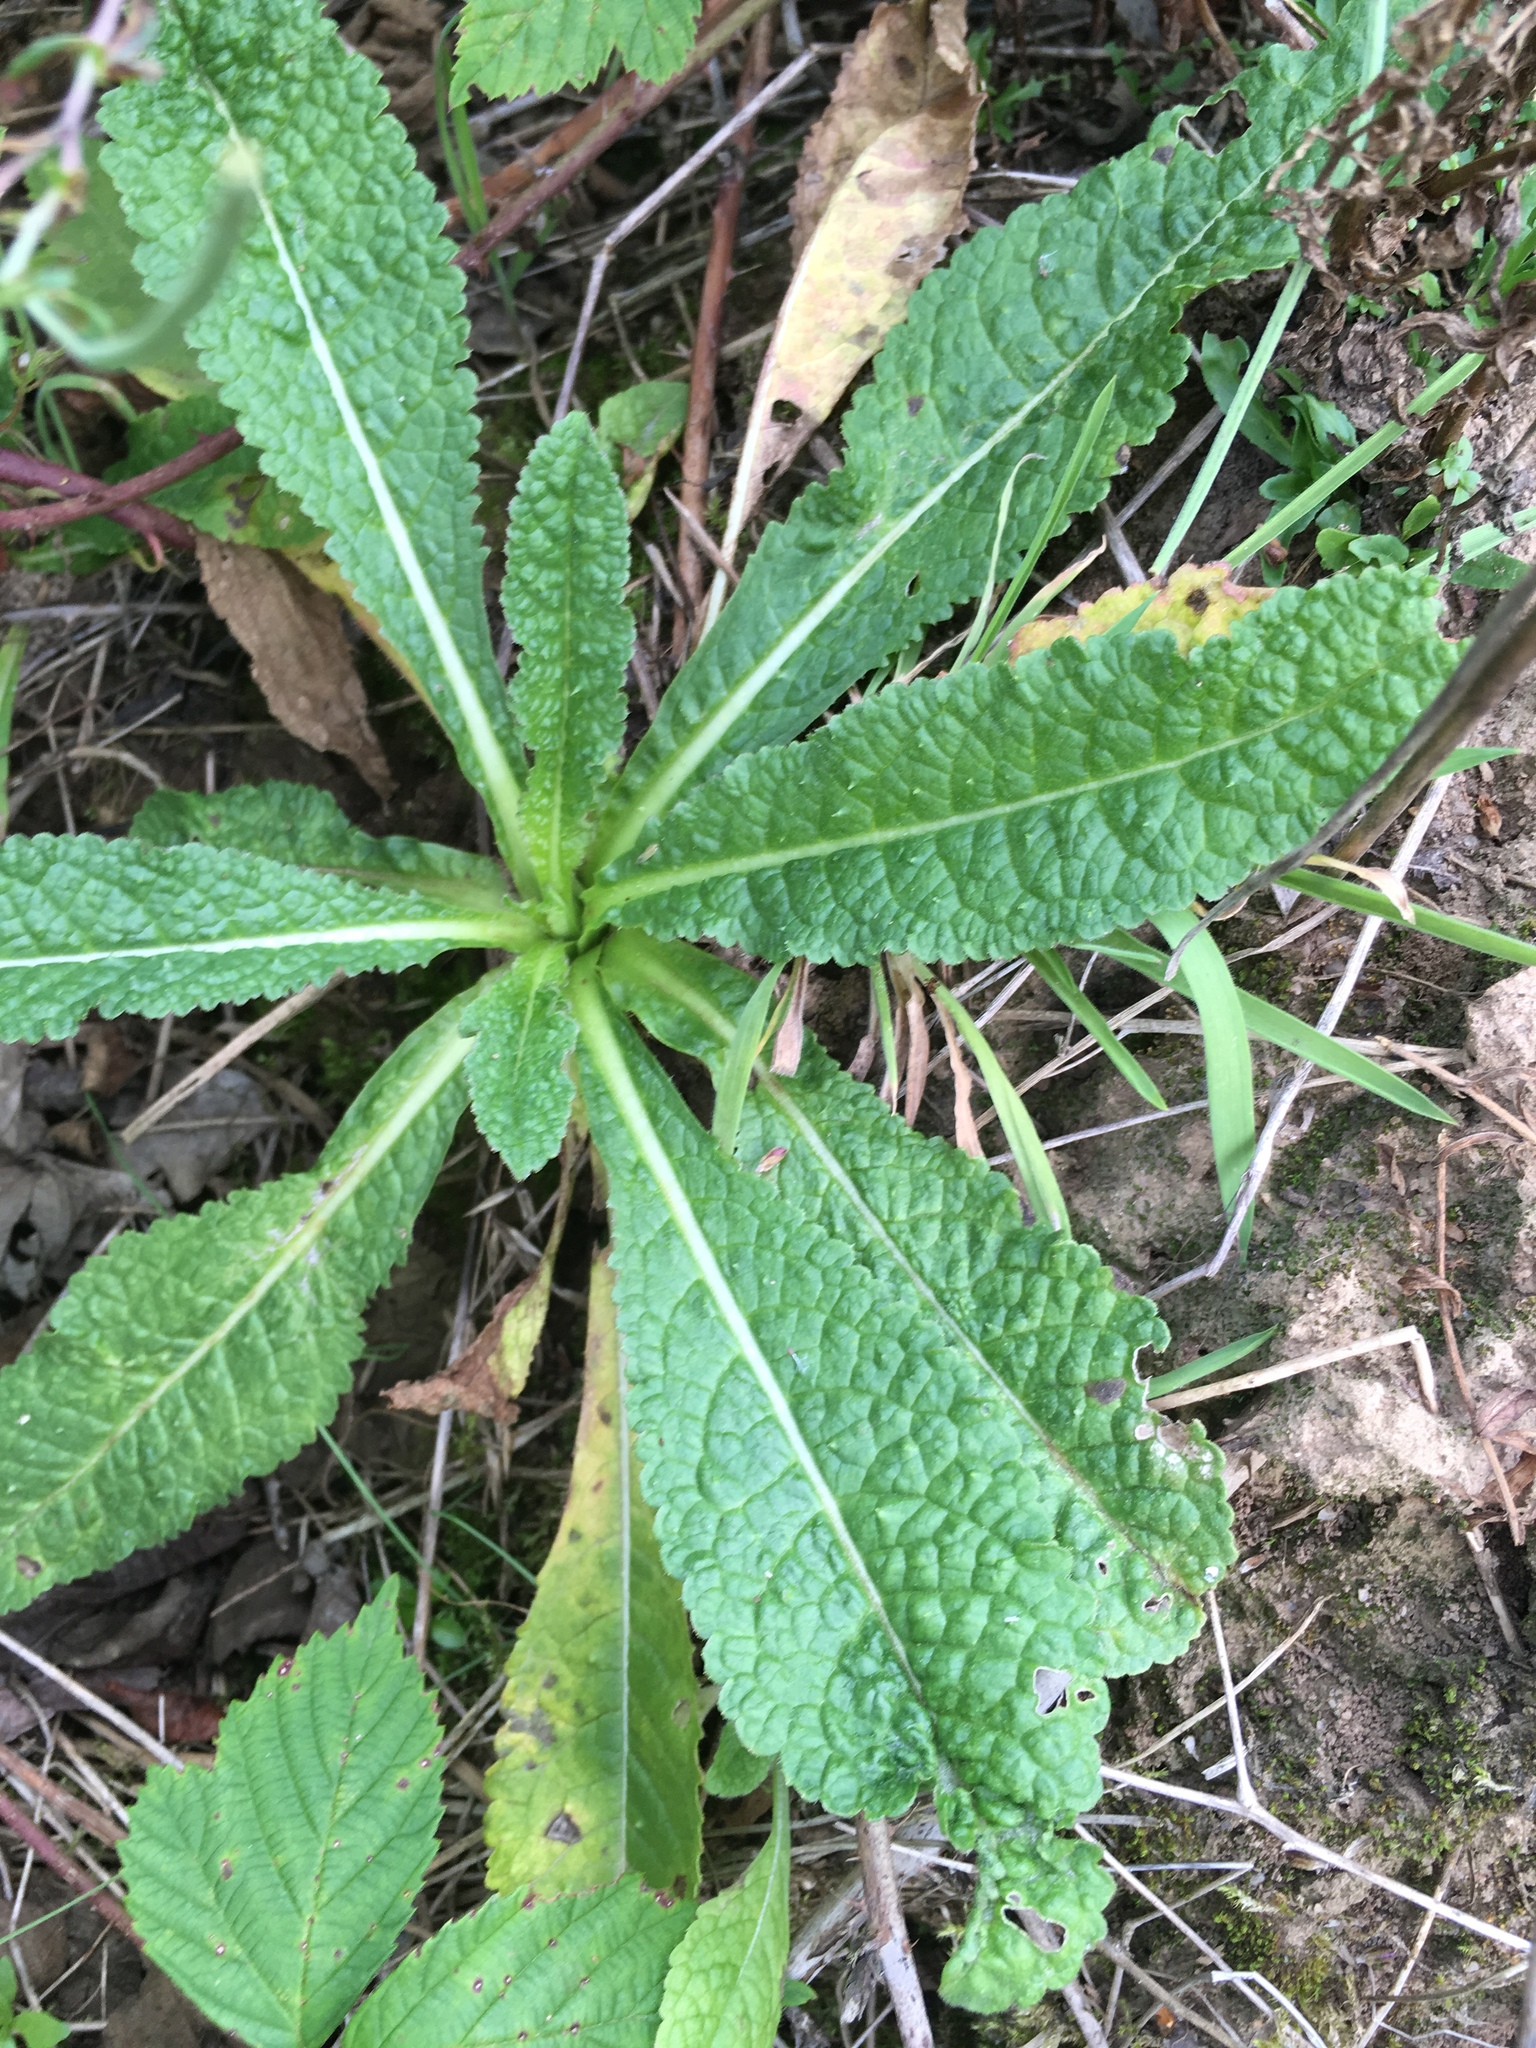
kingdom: Plantae
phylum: Tracheophyta
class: Magnoliopsida
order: Dipsacales
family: Caprifoliaceae
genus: Dipsacus
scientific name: Dipsacus fullonum
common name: Teasel
